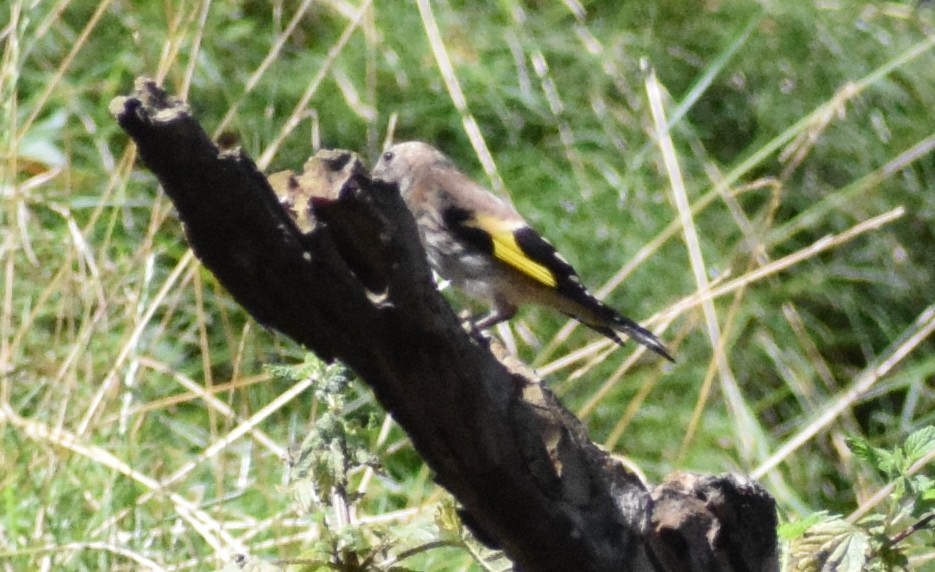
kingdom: Animalia
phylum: Chordata
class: Aves
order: Passeriformes
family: Fringillidae
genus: Carduelis
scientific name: Carduelis carduelis
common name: European goldfinch
